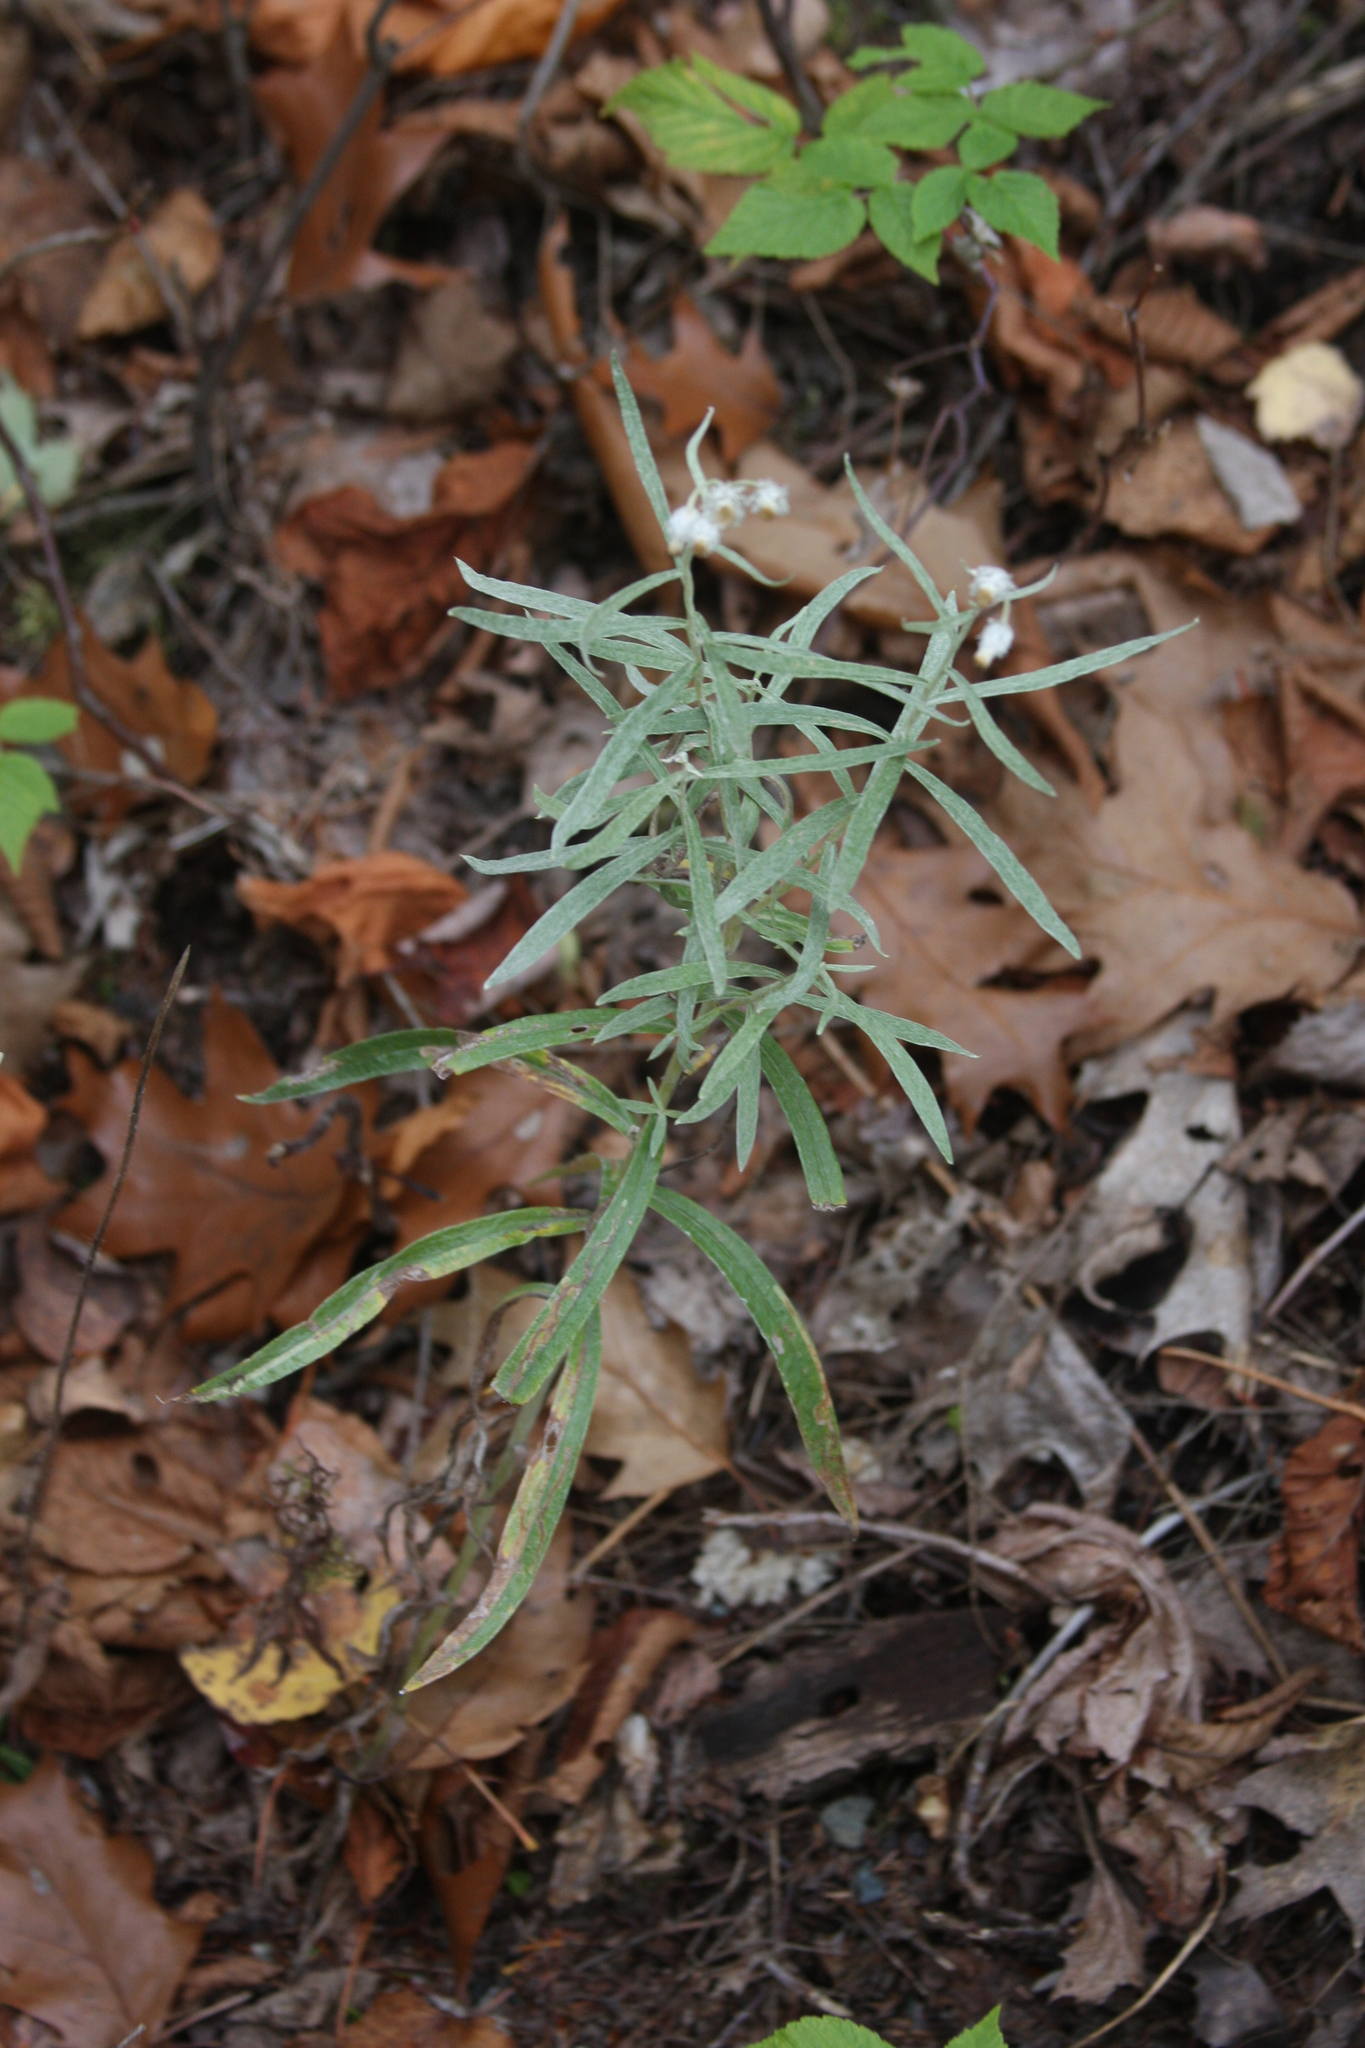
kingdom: Plantae
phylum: Tracheophyta
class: Magnoliopsida
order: Asterales
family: Asteraceae
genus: Anaphalis
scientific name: Anaphalis margaritacea
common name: Pearly everlasting
